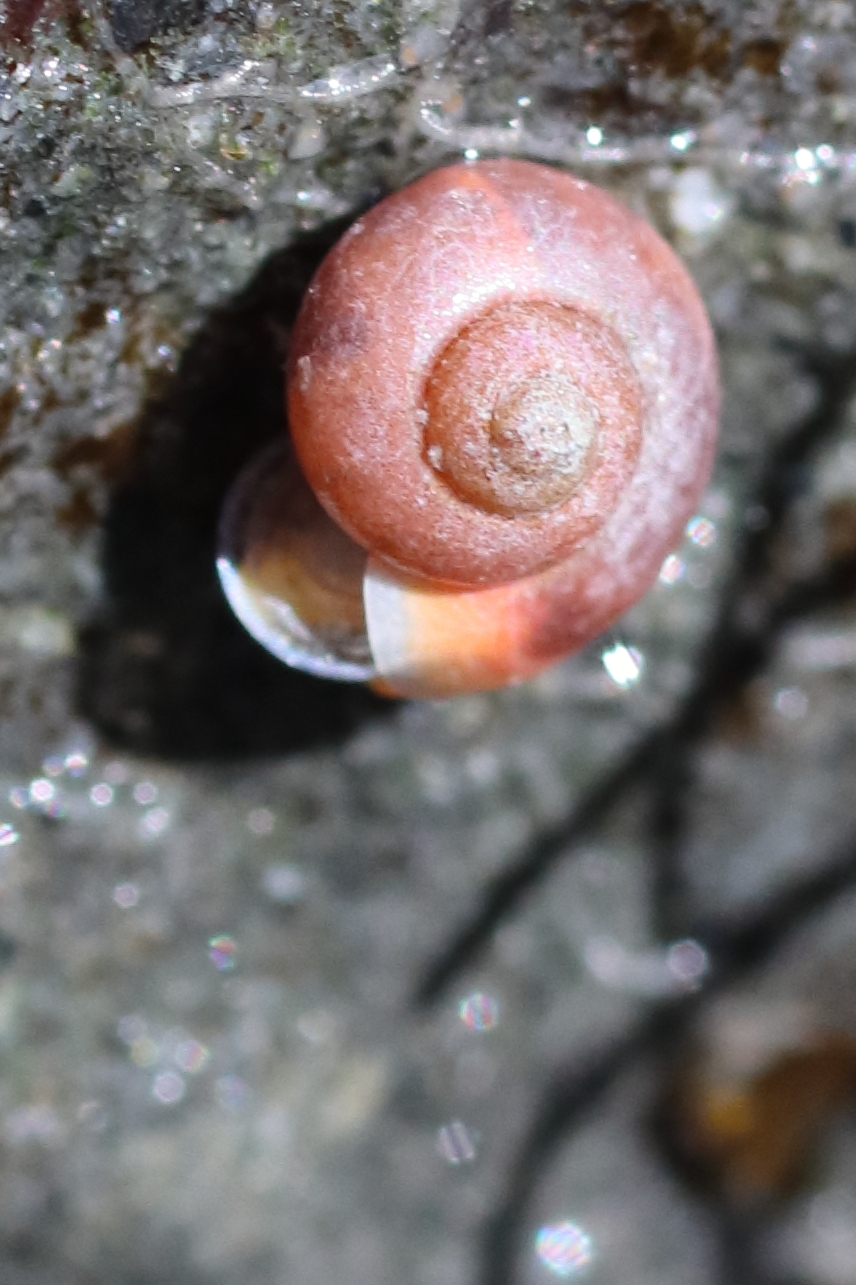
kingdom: Animalia
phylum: Mollusca
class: Gastropoda
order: Trochida
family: Margaritidae
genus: Margarites
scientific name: Margarites helicinus
